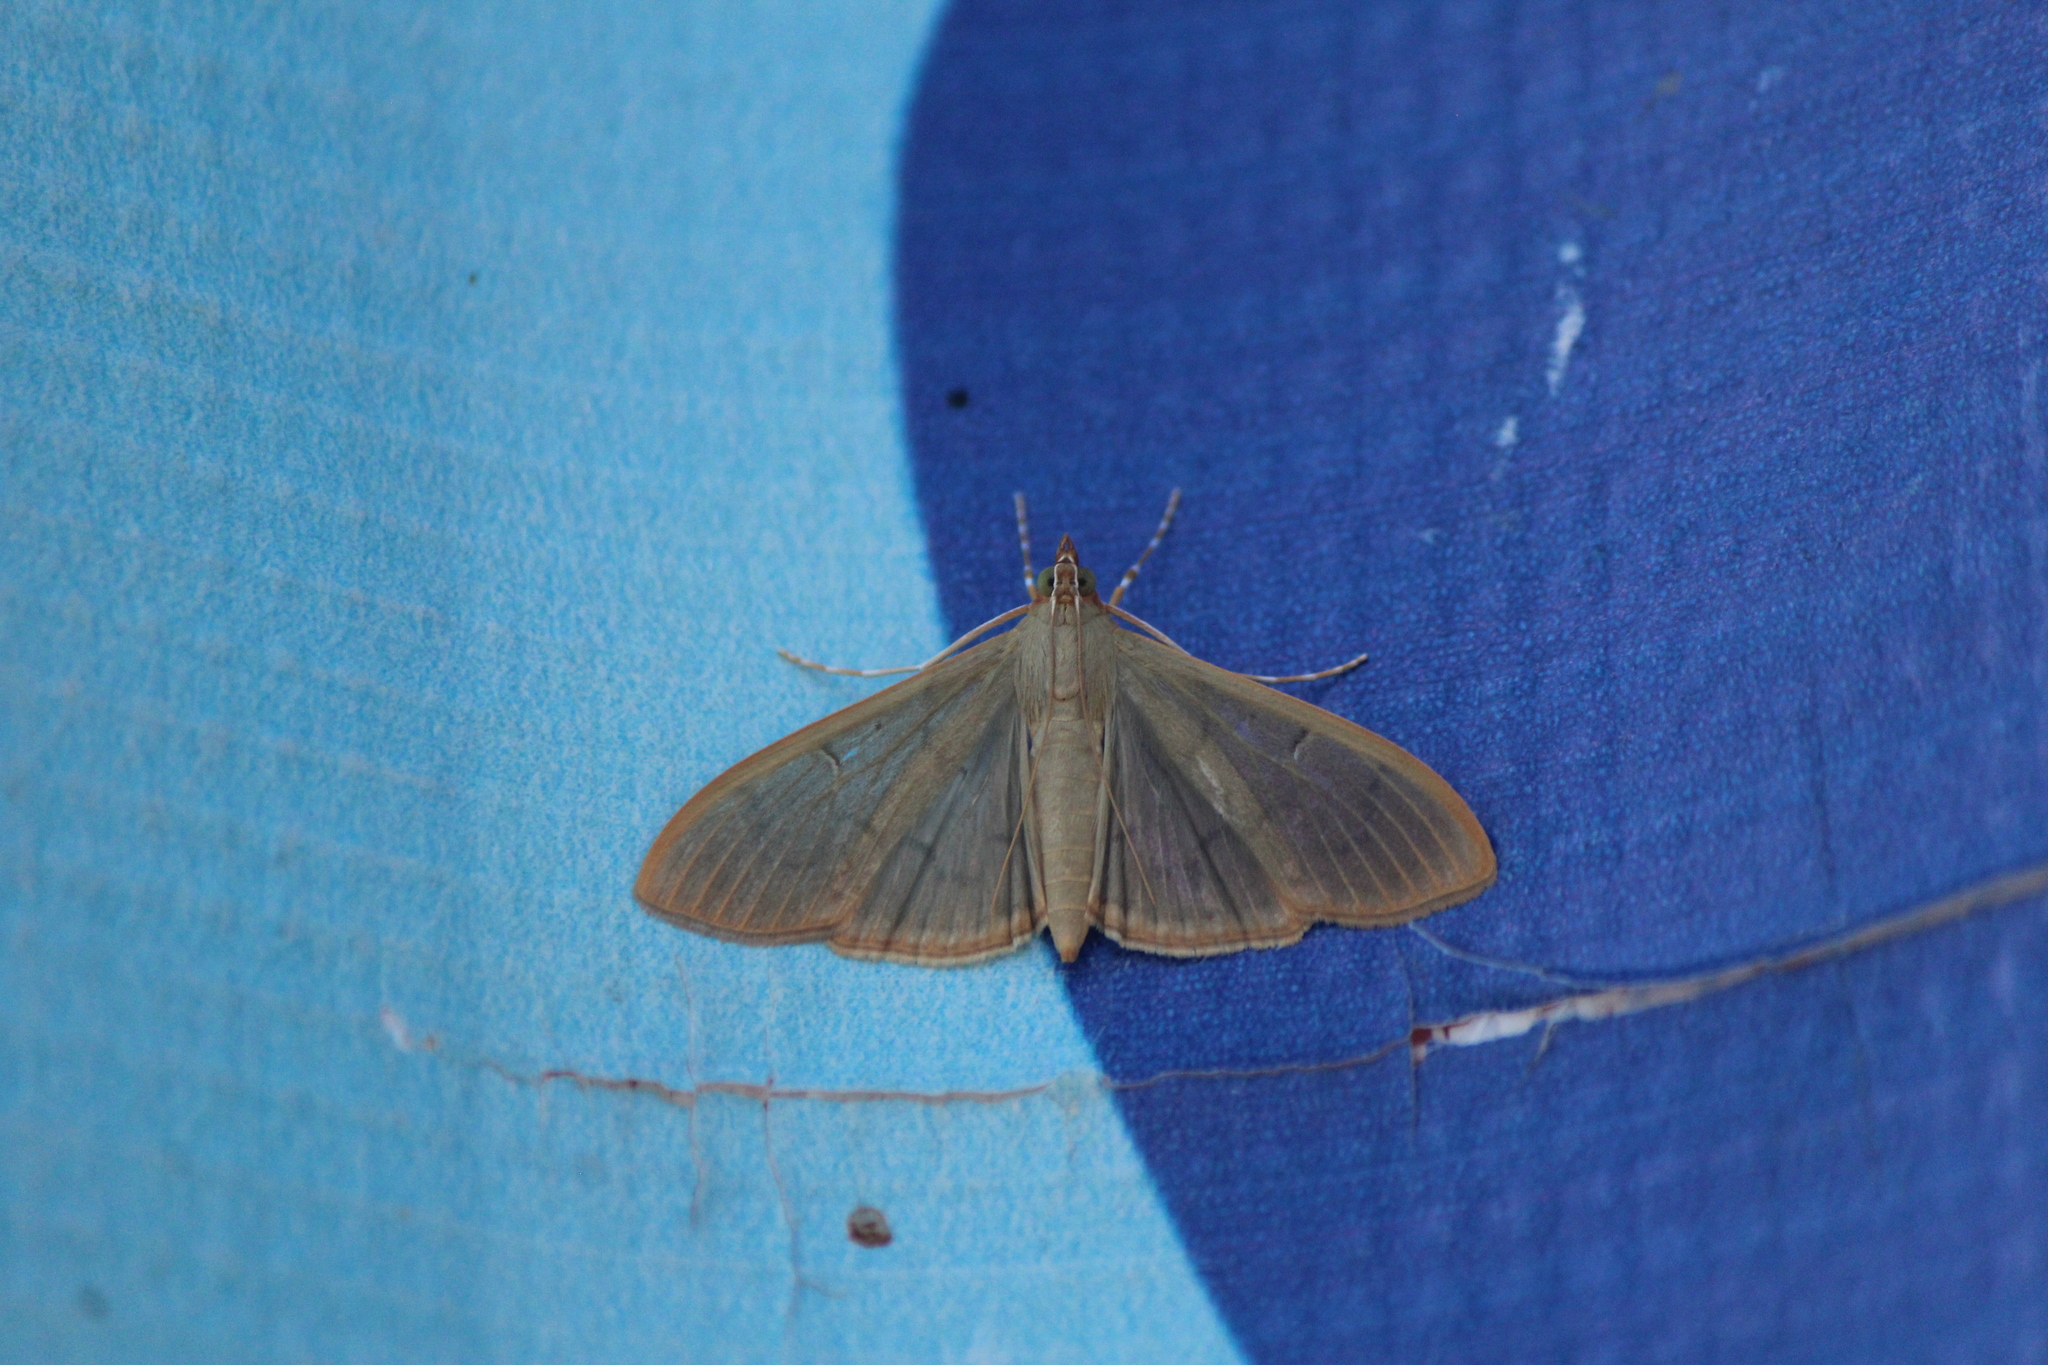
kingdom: Animalia
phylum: Arthropoda
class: Insecta
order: Lepidoptera
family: Crambidae
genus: Condylorrhiza
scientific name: Condylorrhiza vestigialis
